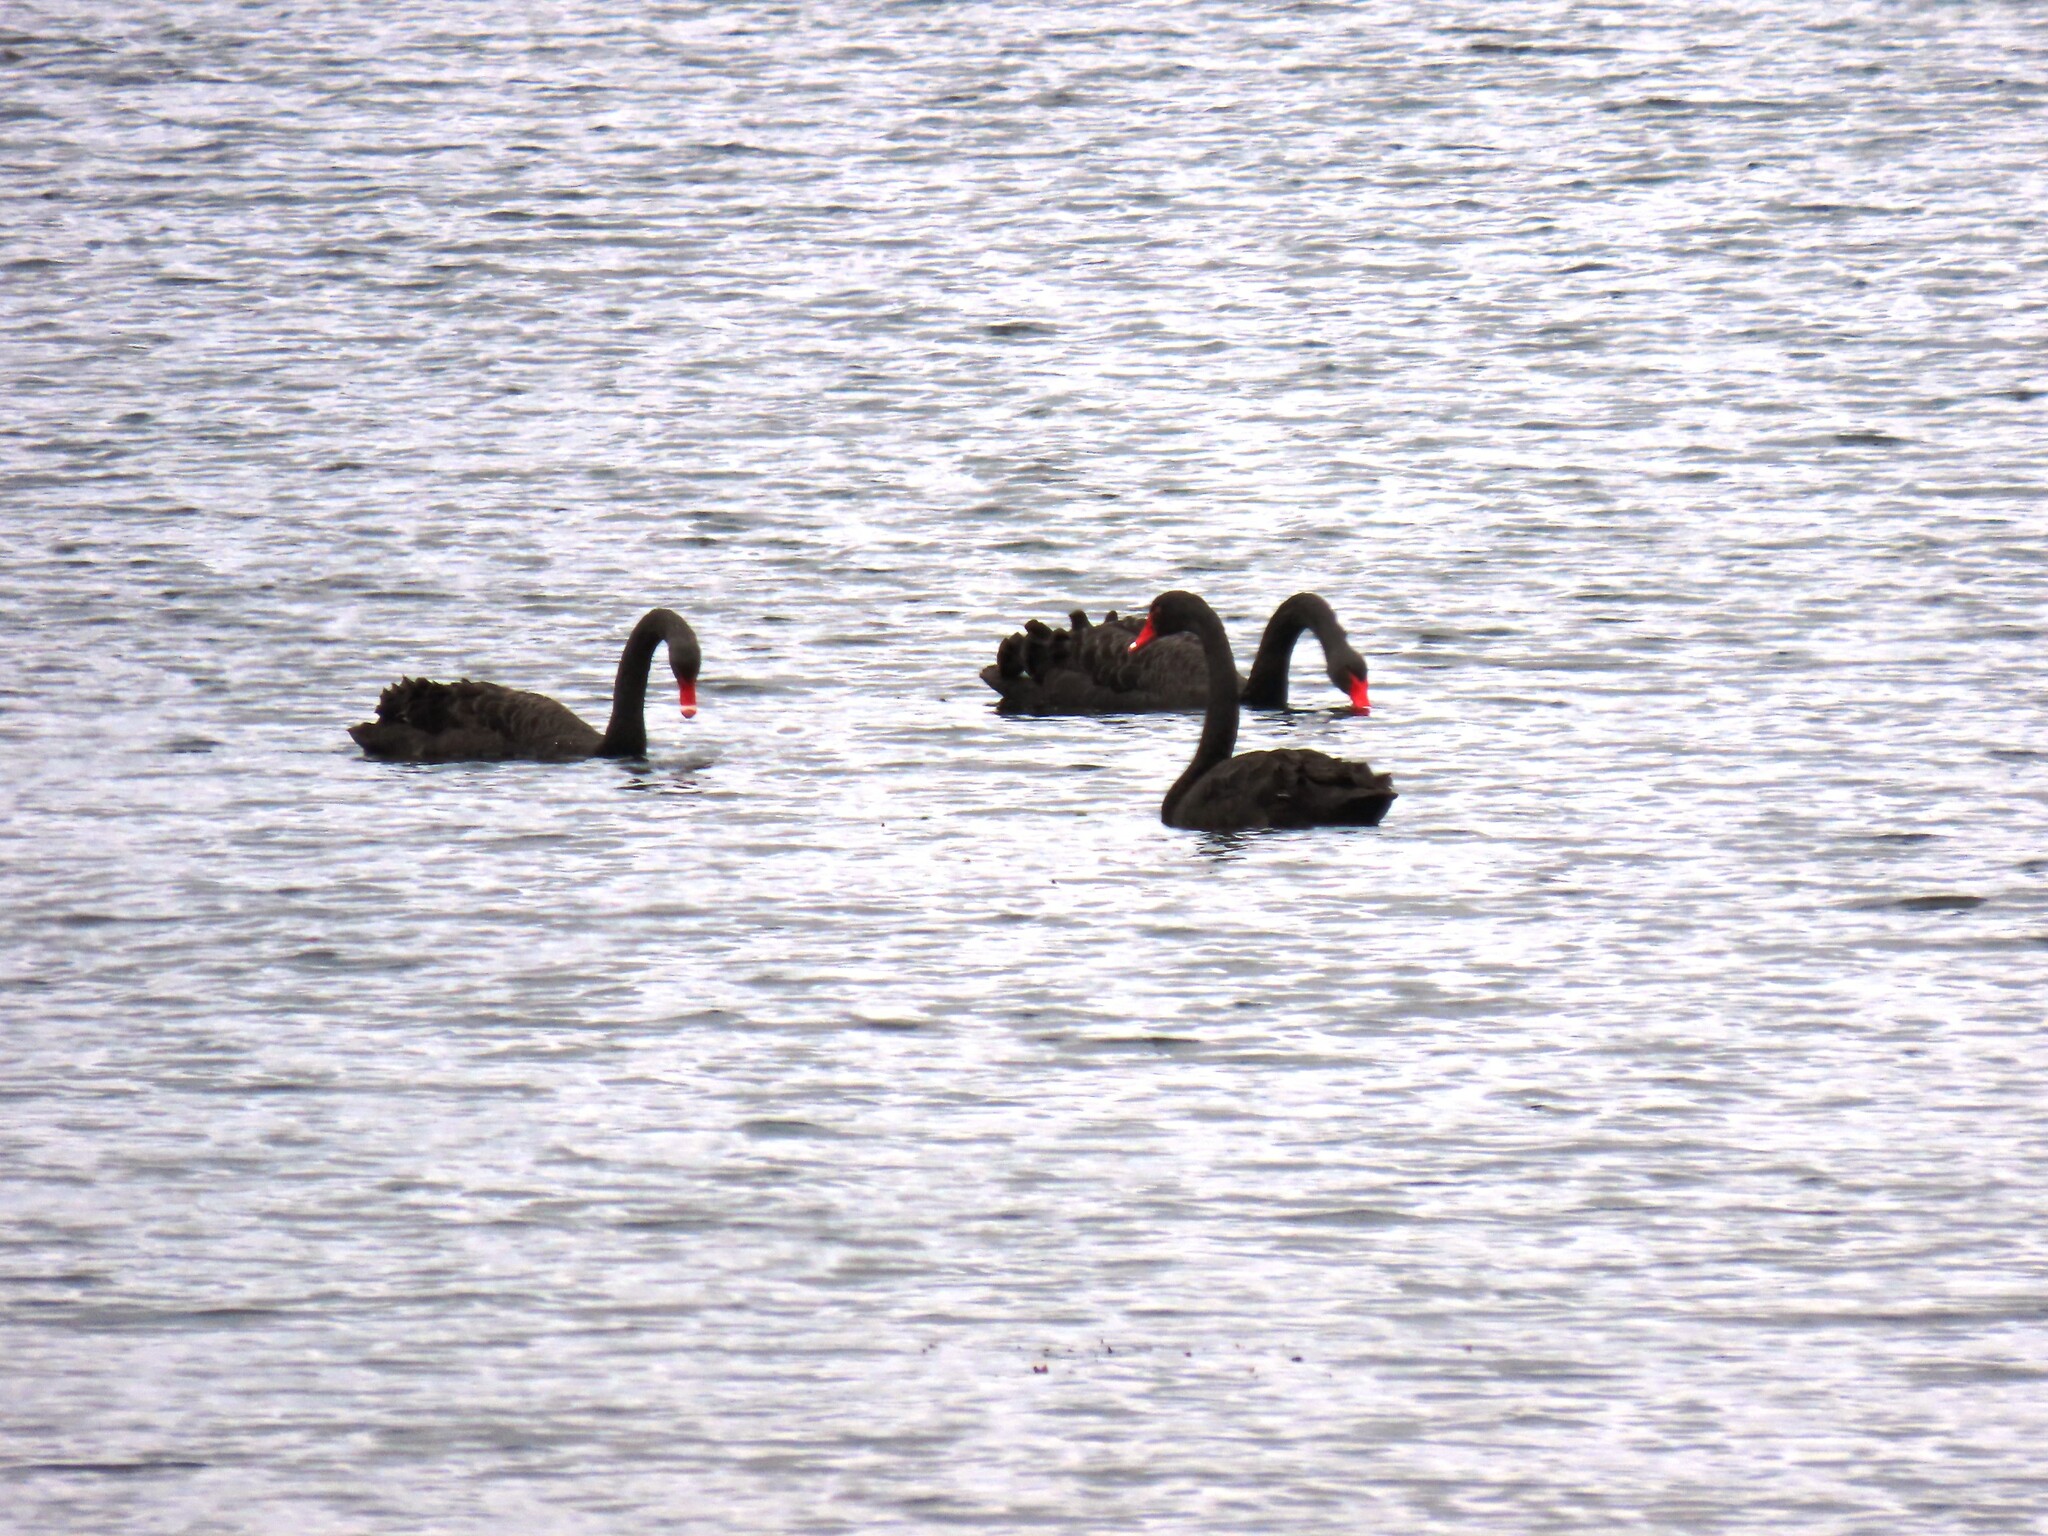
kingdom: Animalia
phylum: Chordata
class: Aves
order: Anseriformes
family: Anatidae
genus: Cygnus
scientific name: Cygnus atratus
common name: Black swan
